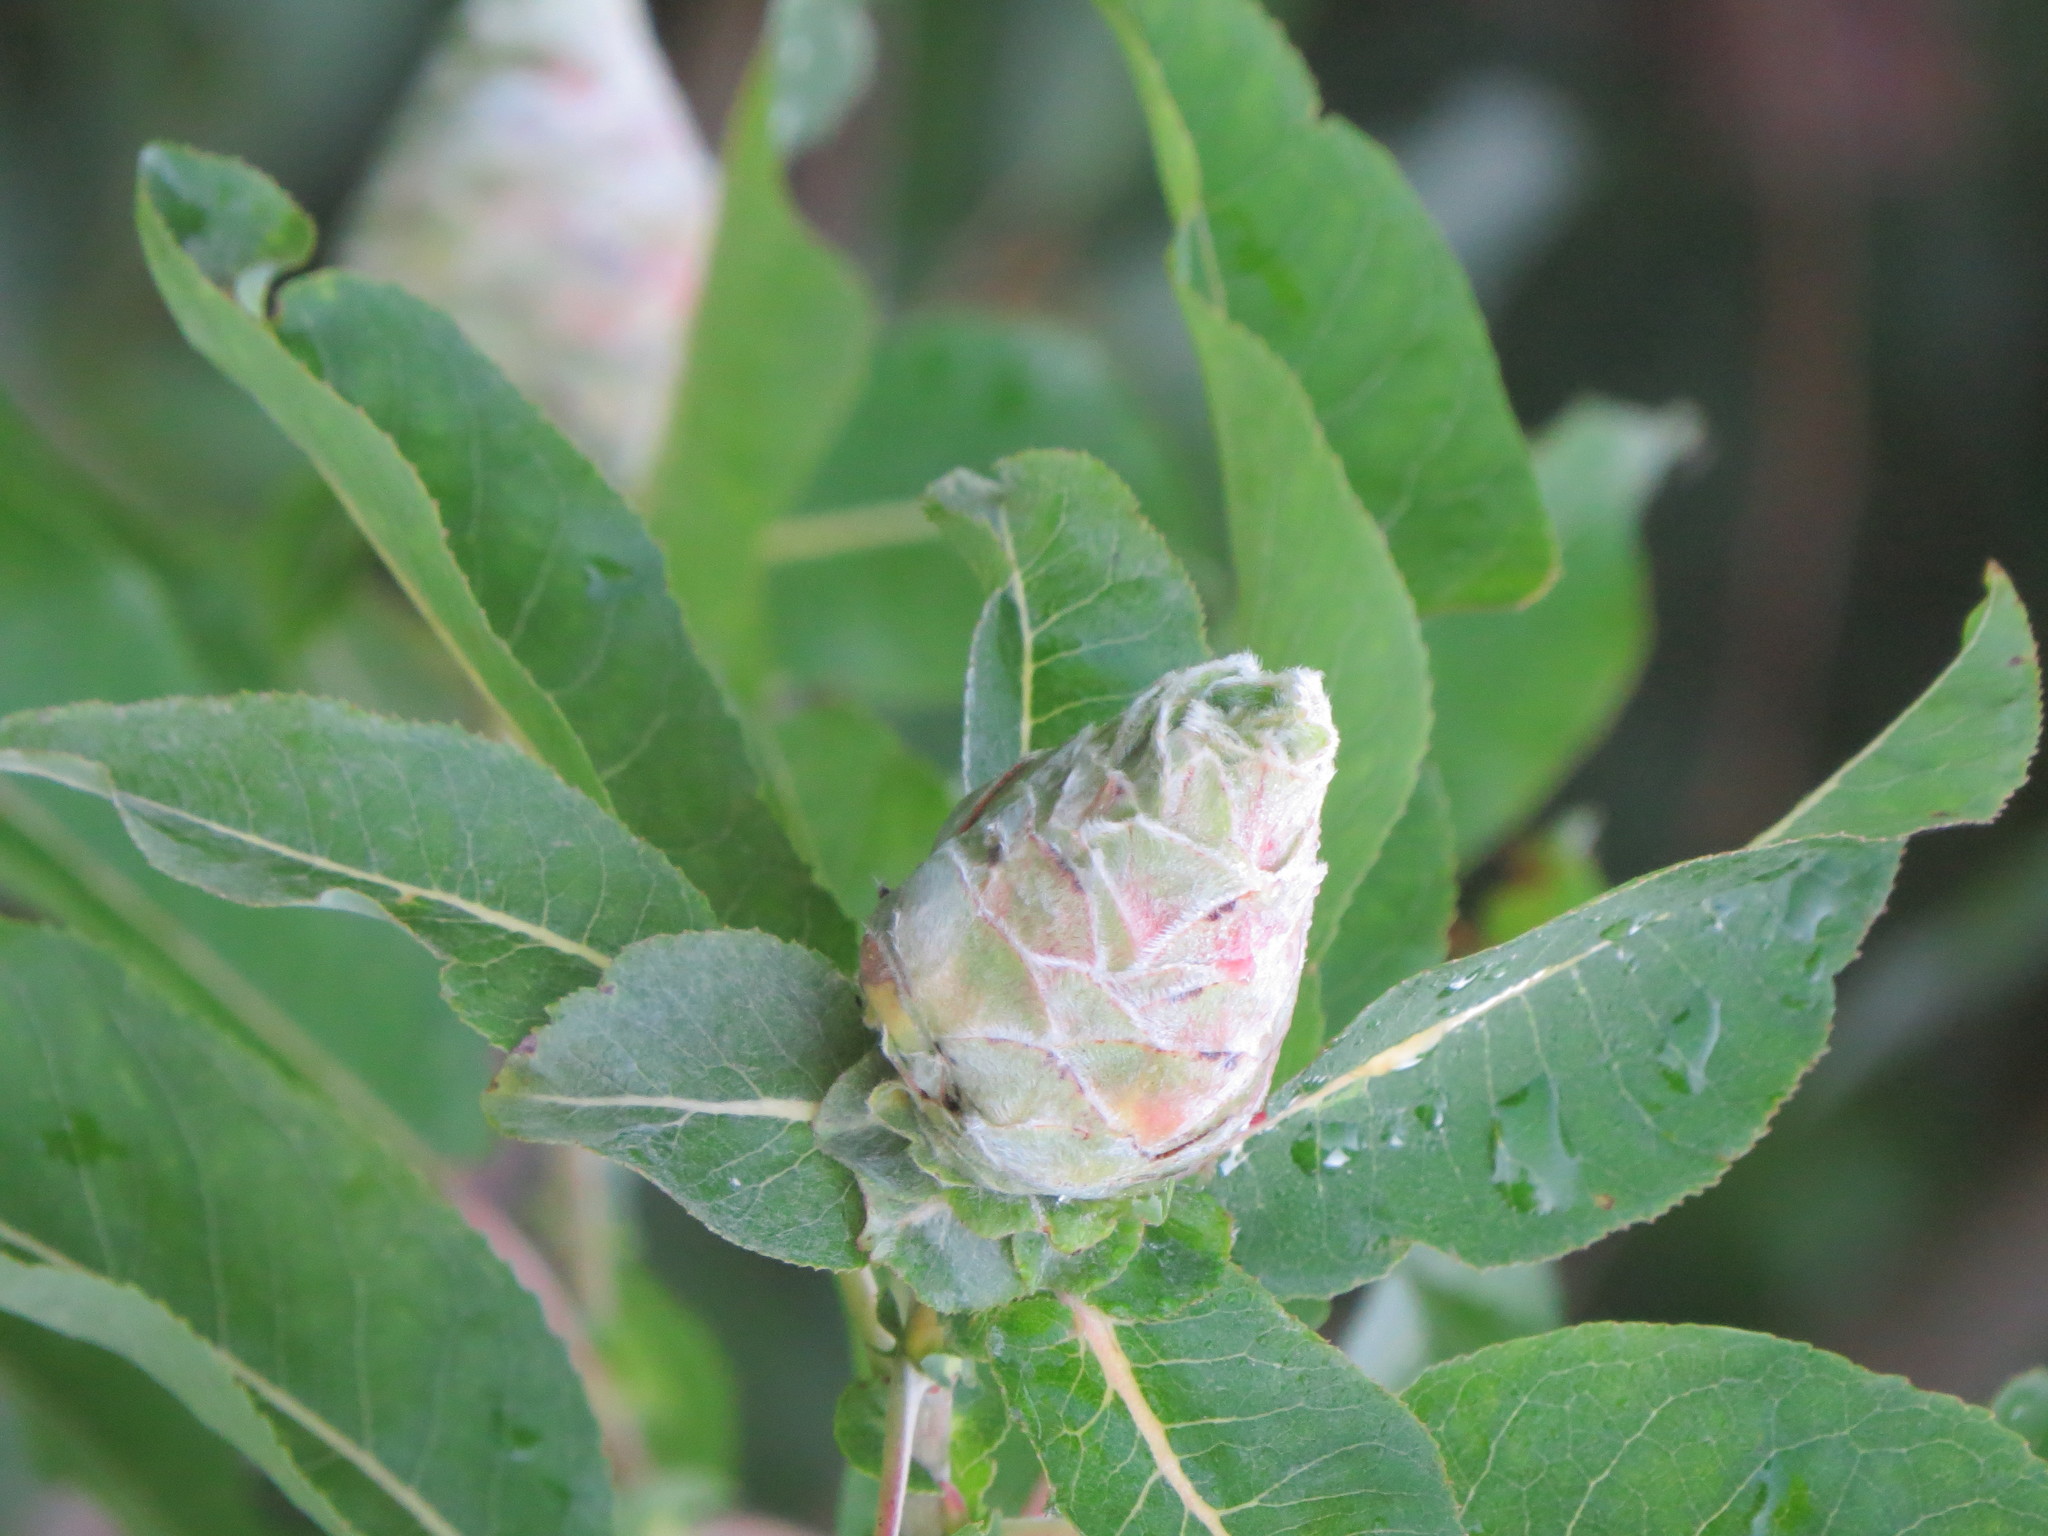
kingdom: Animalia
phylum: Arthropoda
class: Insecta
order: Diptera
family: Cecidomyiidae
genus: Rabdophaga
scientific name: Rabdophaga strobiloides
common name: Willow pinecone gall midge
